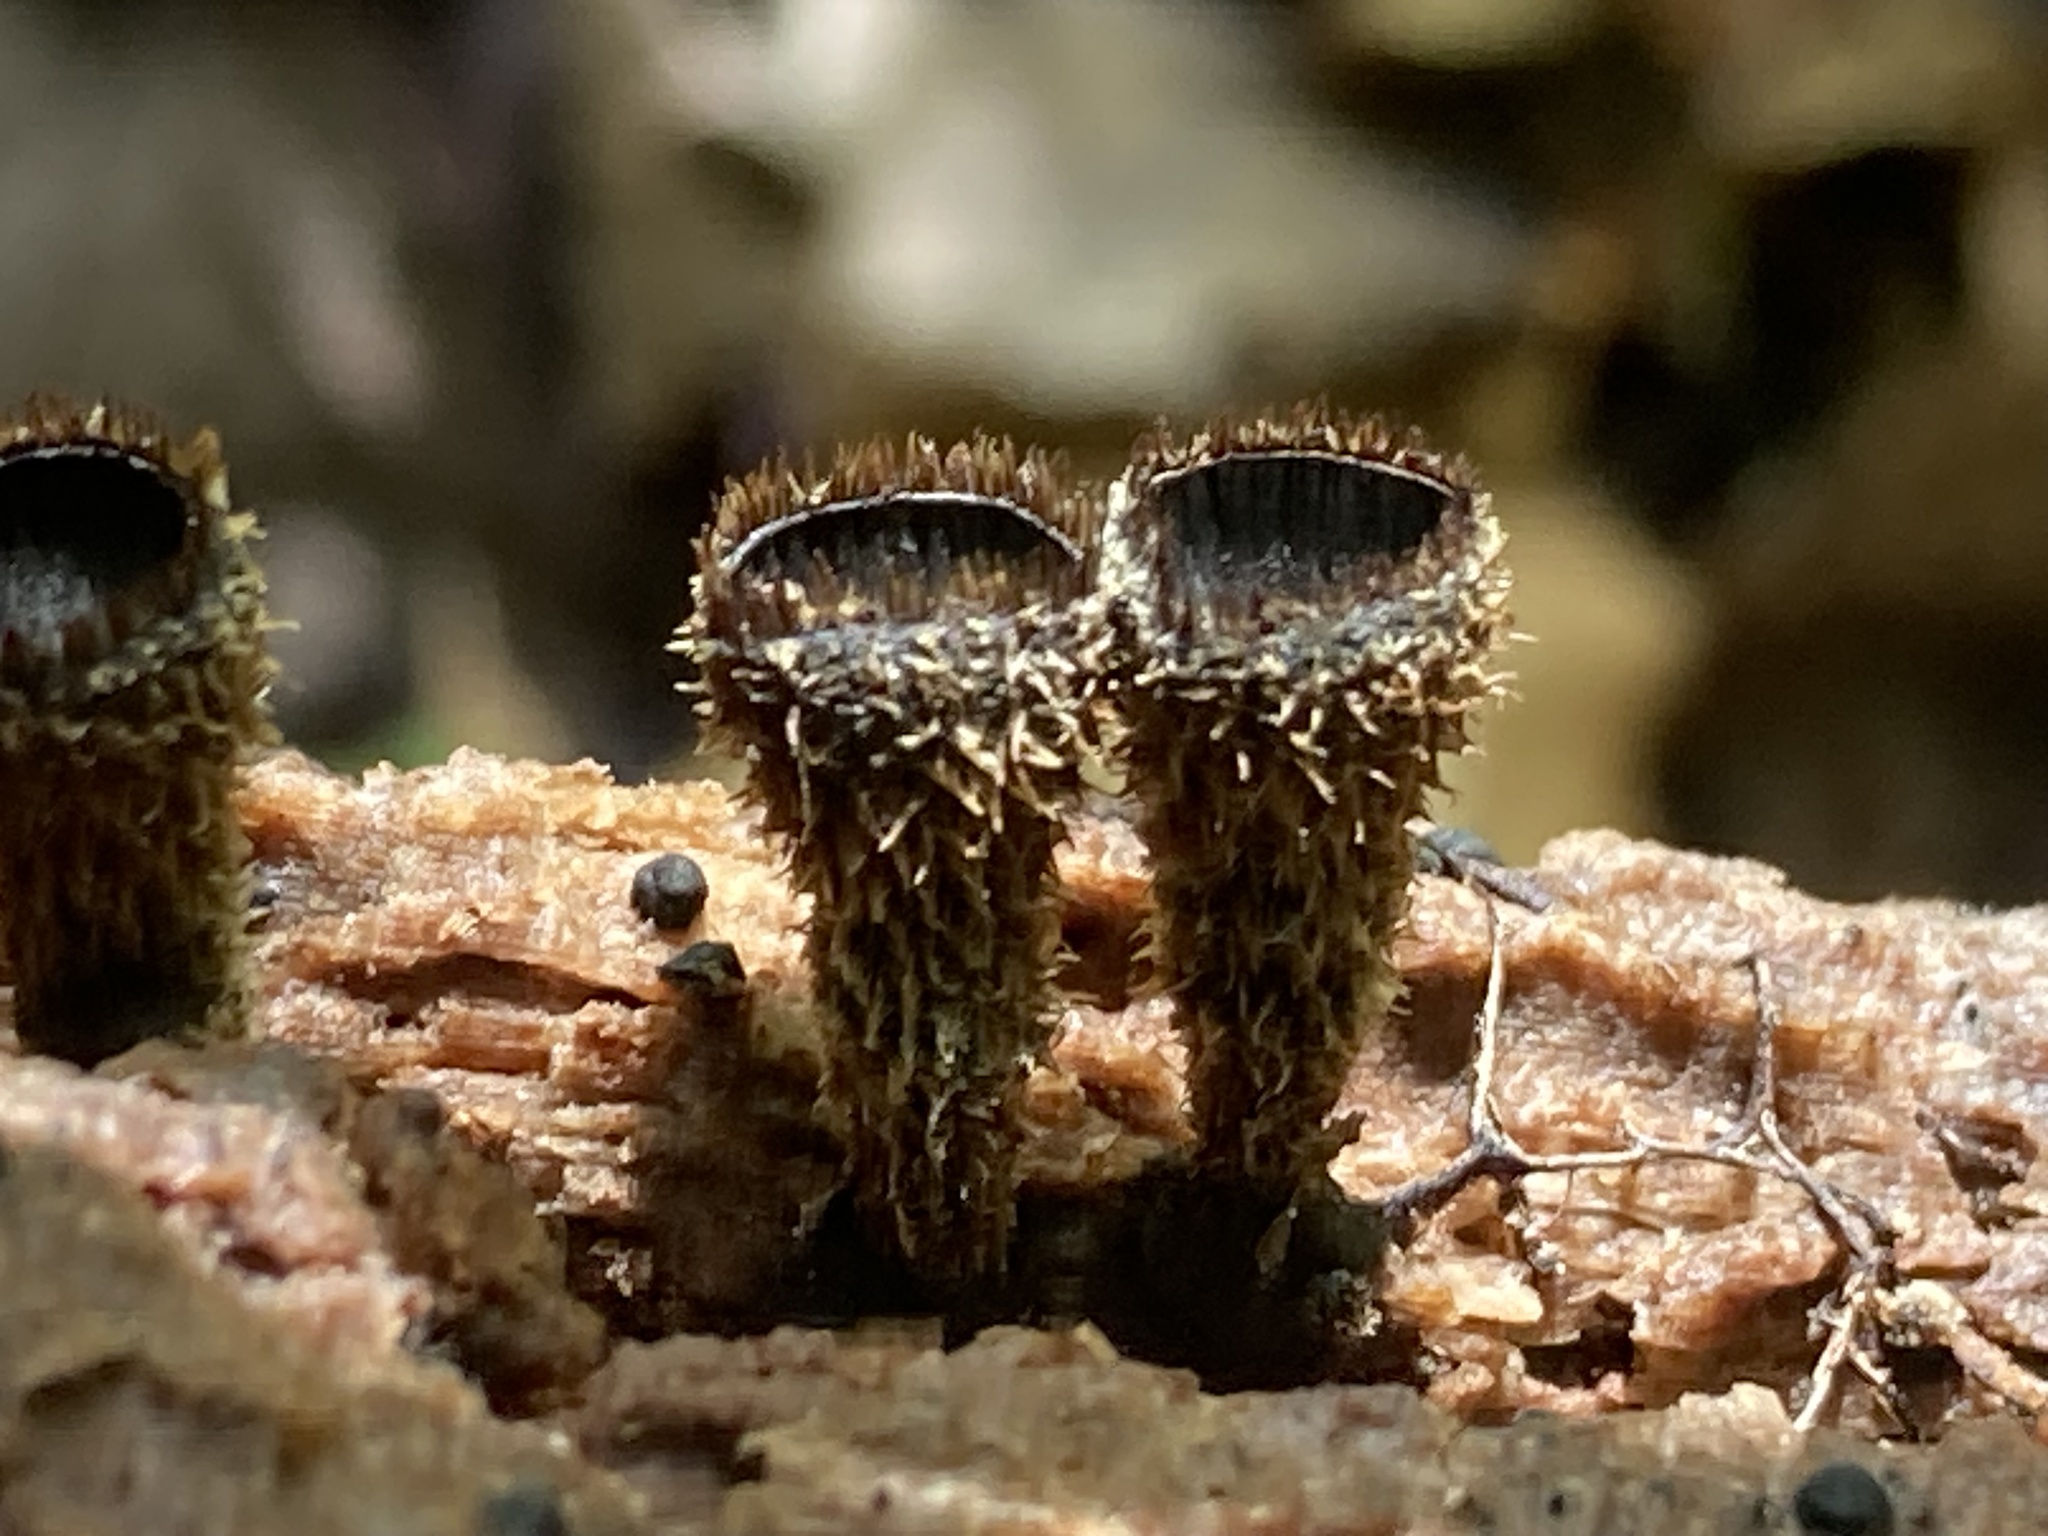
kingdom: Fungi
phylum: Basidiomycota
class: Agaricomycetes
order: Agaricales
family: Agaricaceae
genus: Cyathus
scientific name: Cyathus striatus
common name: Fluted bird's nest
